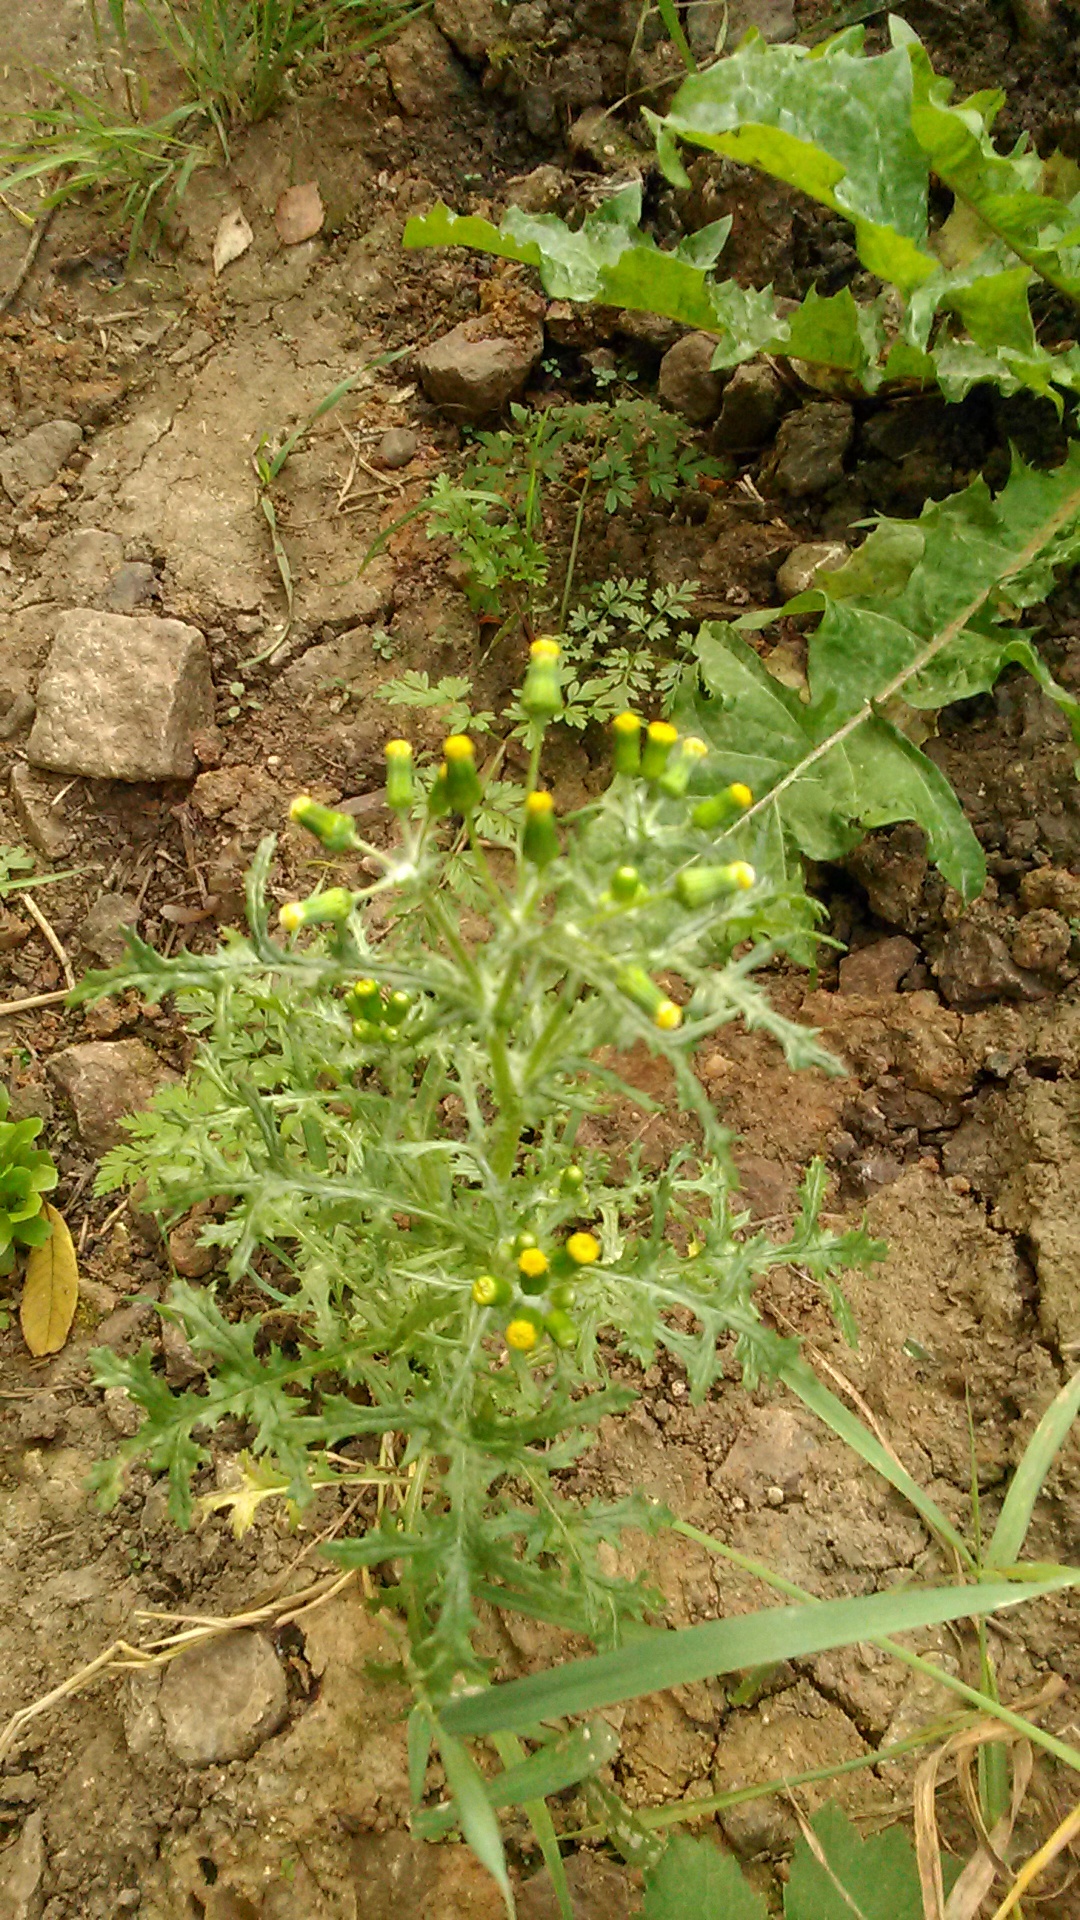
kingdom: Plantae
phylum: Tracheophyta
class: Magnoliopsida
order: Asterales
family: Asteraceae
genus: Senecio
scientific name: Senecio vulgaris
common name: Old-man-in-the-spring
